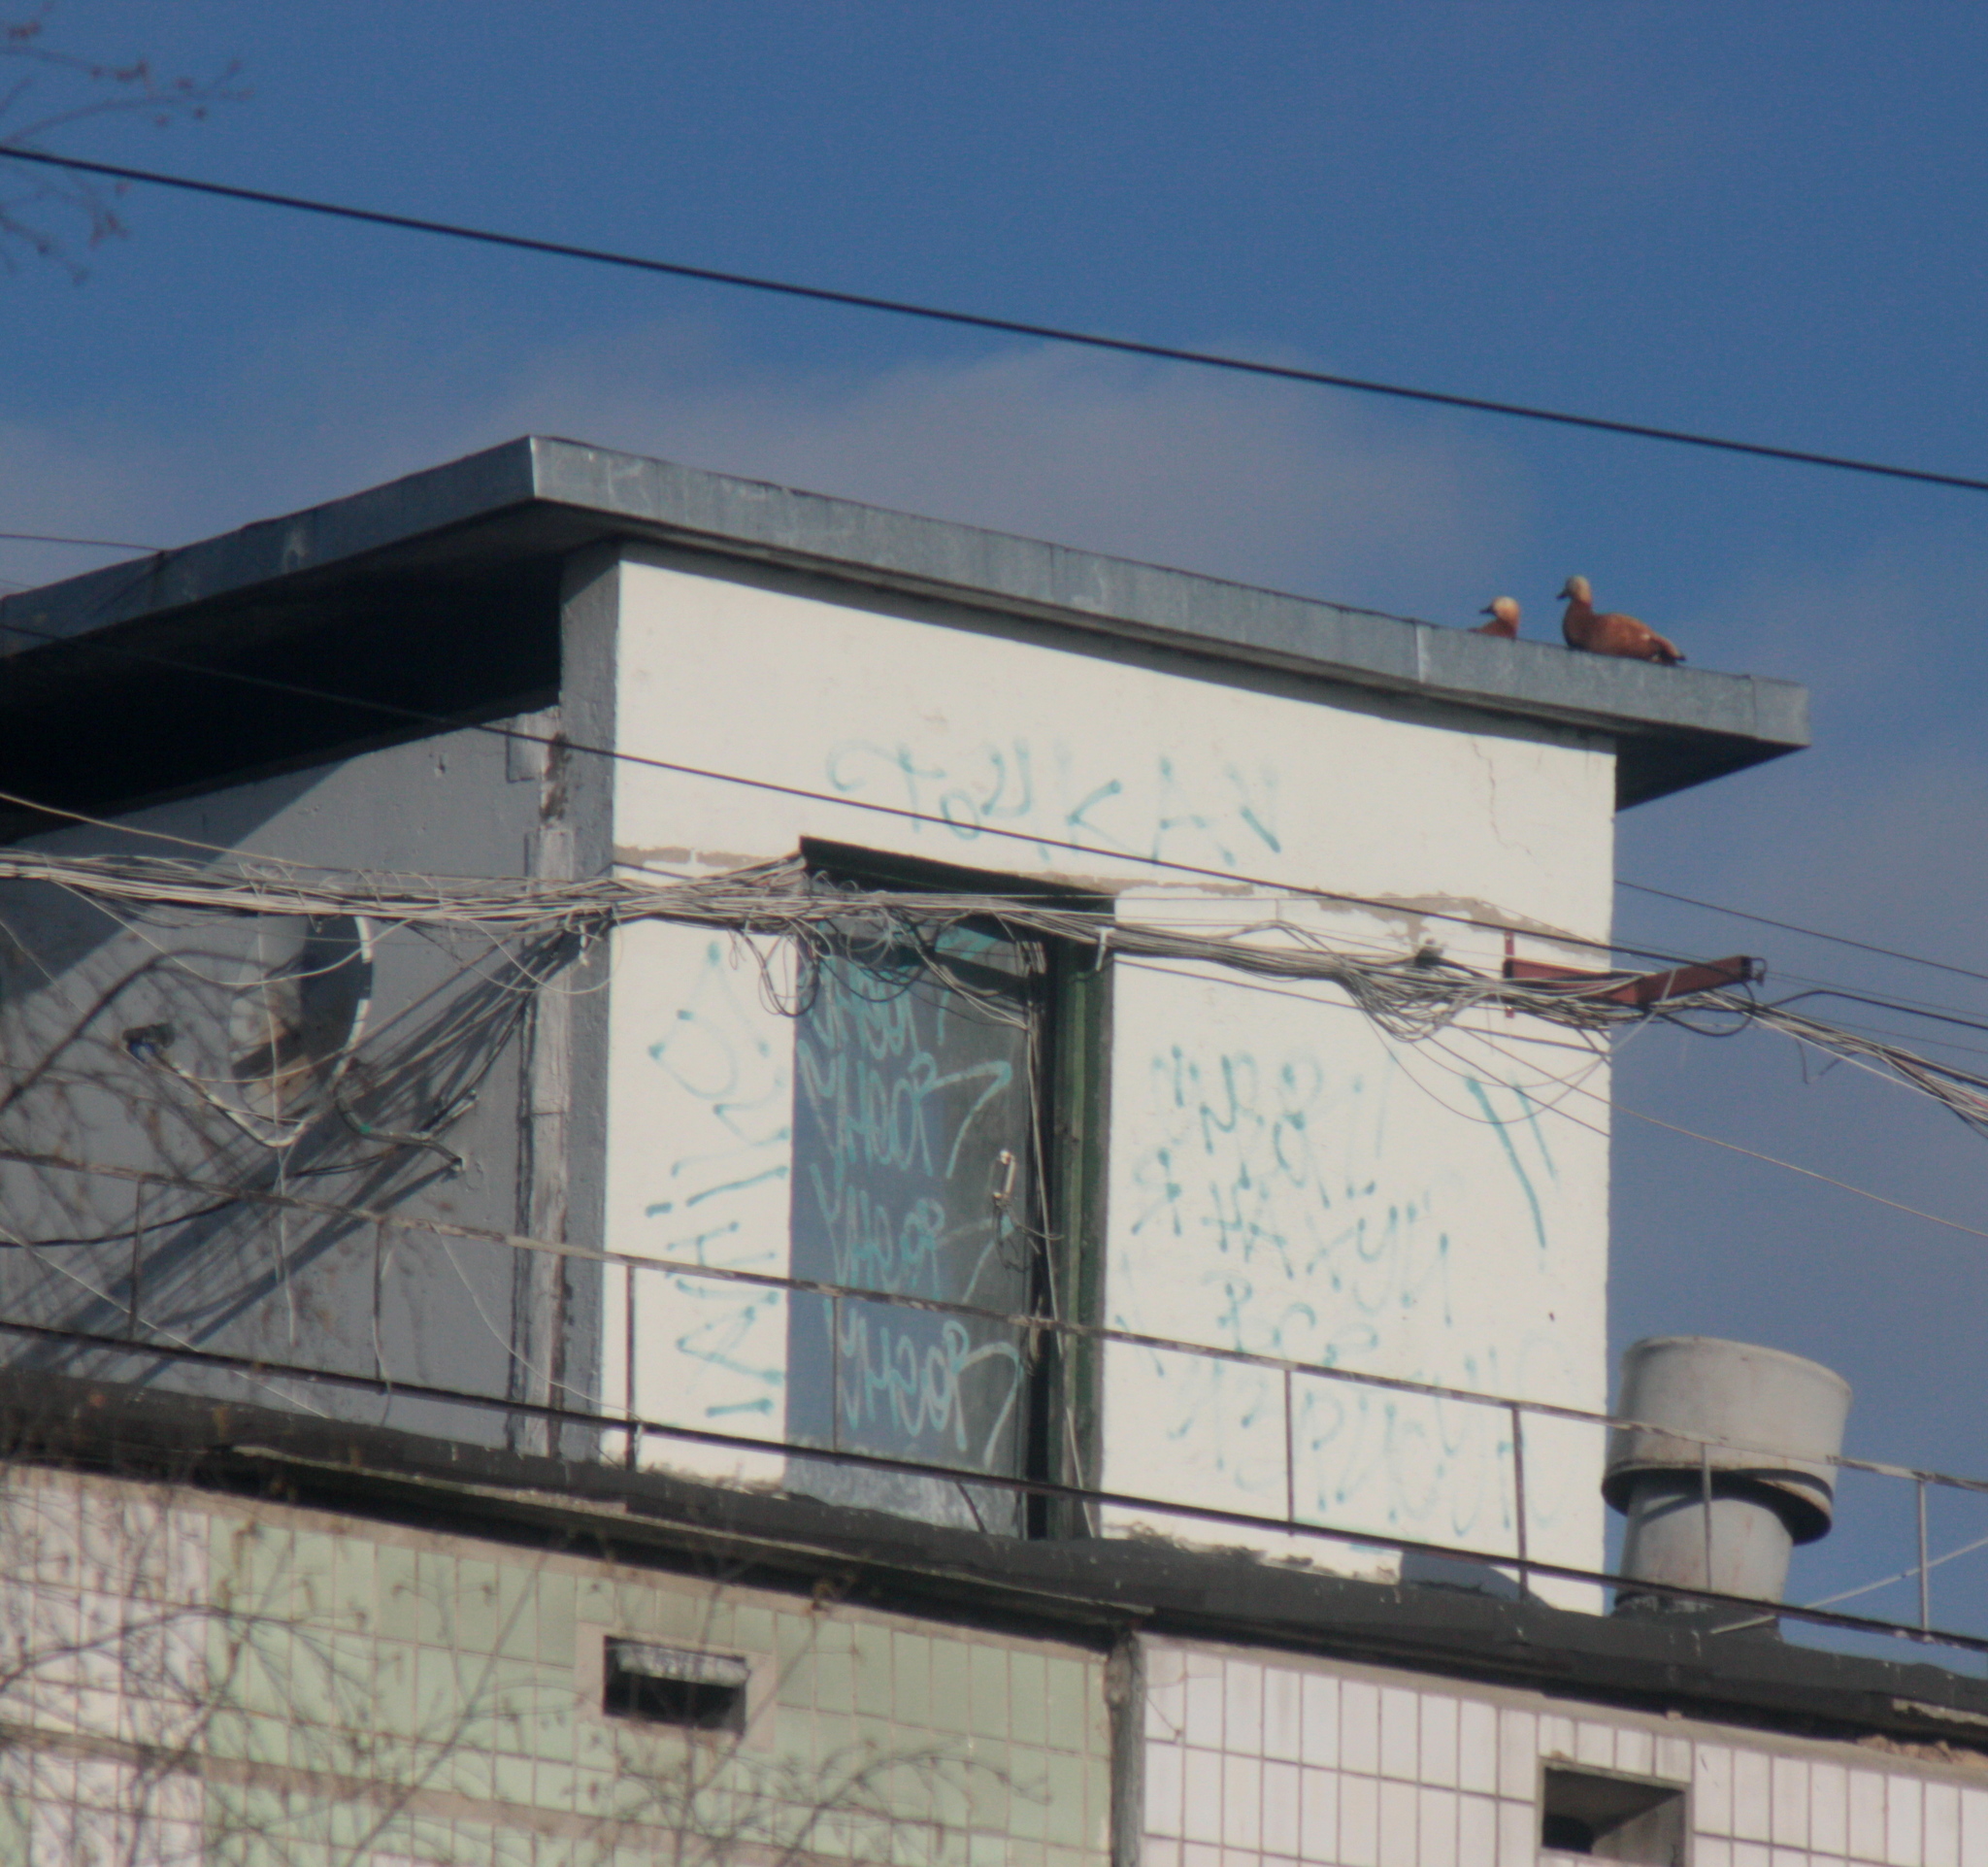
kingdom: Animalia
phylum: Chordata
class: Aves
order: Anseriformes
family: Anatidae
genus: Tadorna
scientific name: Tadorna ferruginea
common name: Ruddy shelduck
